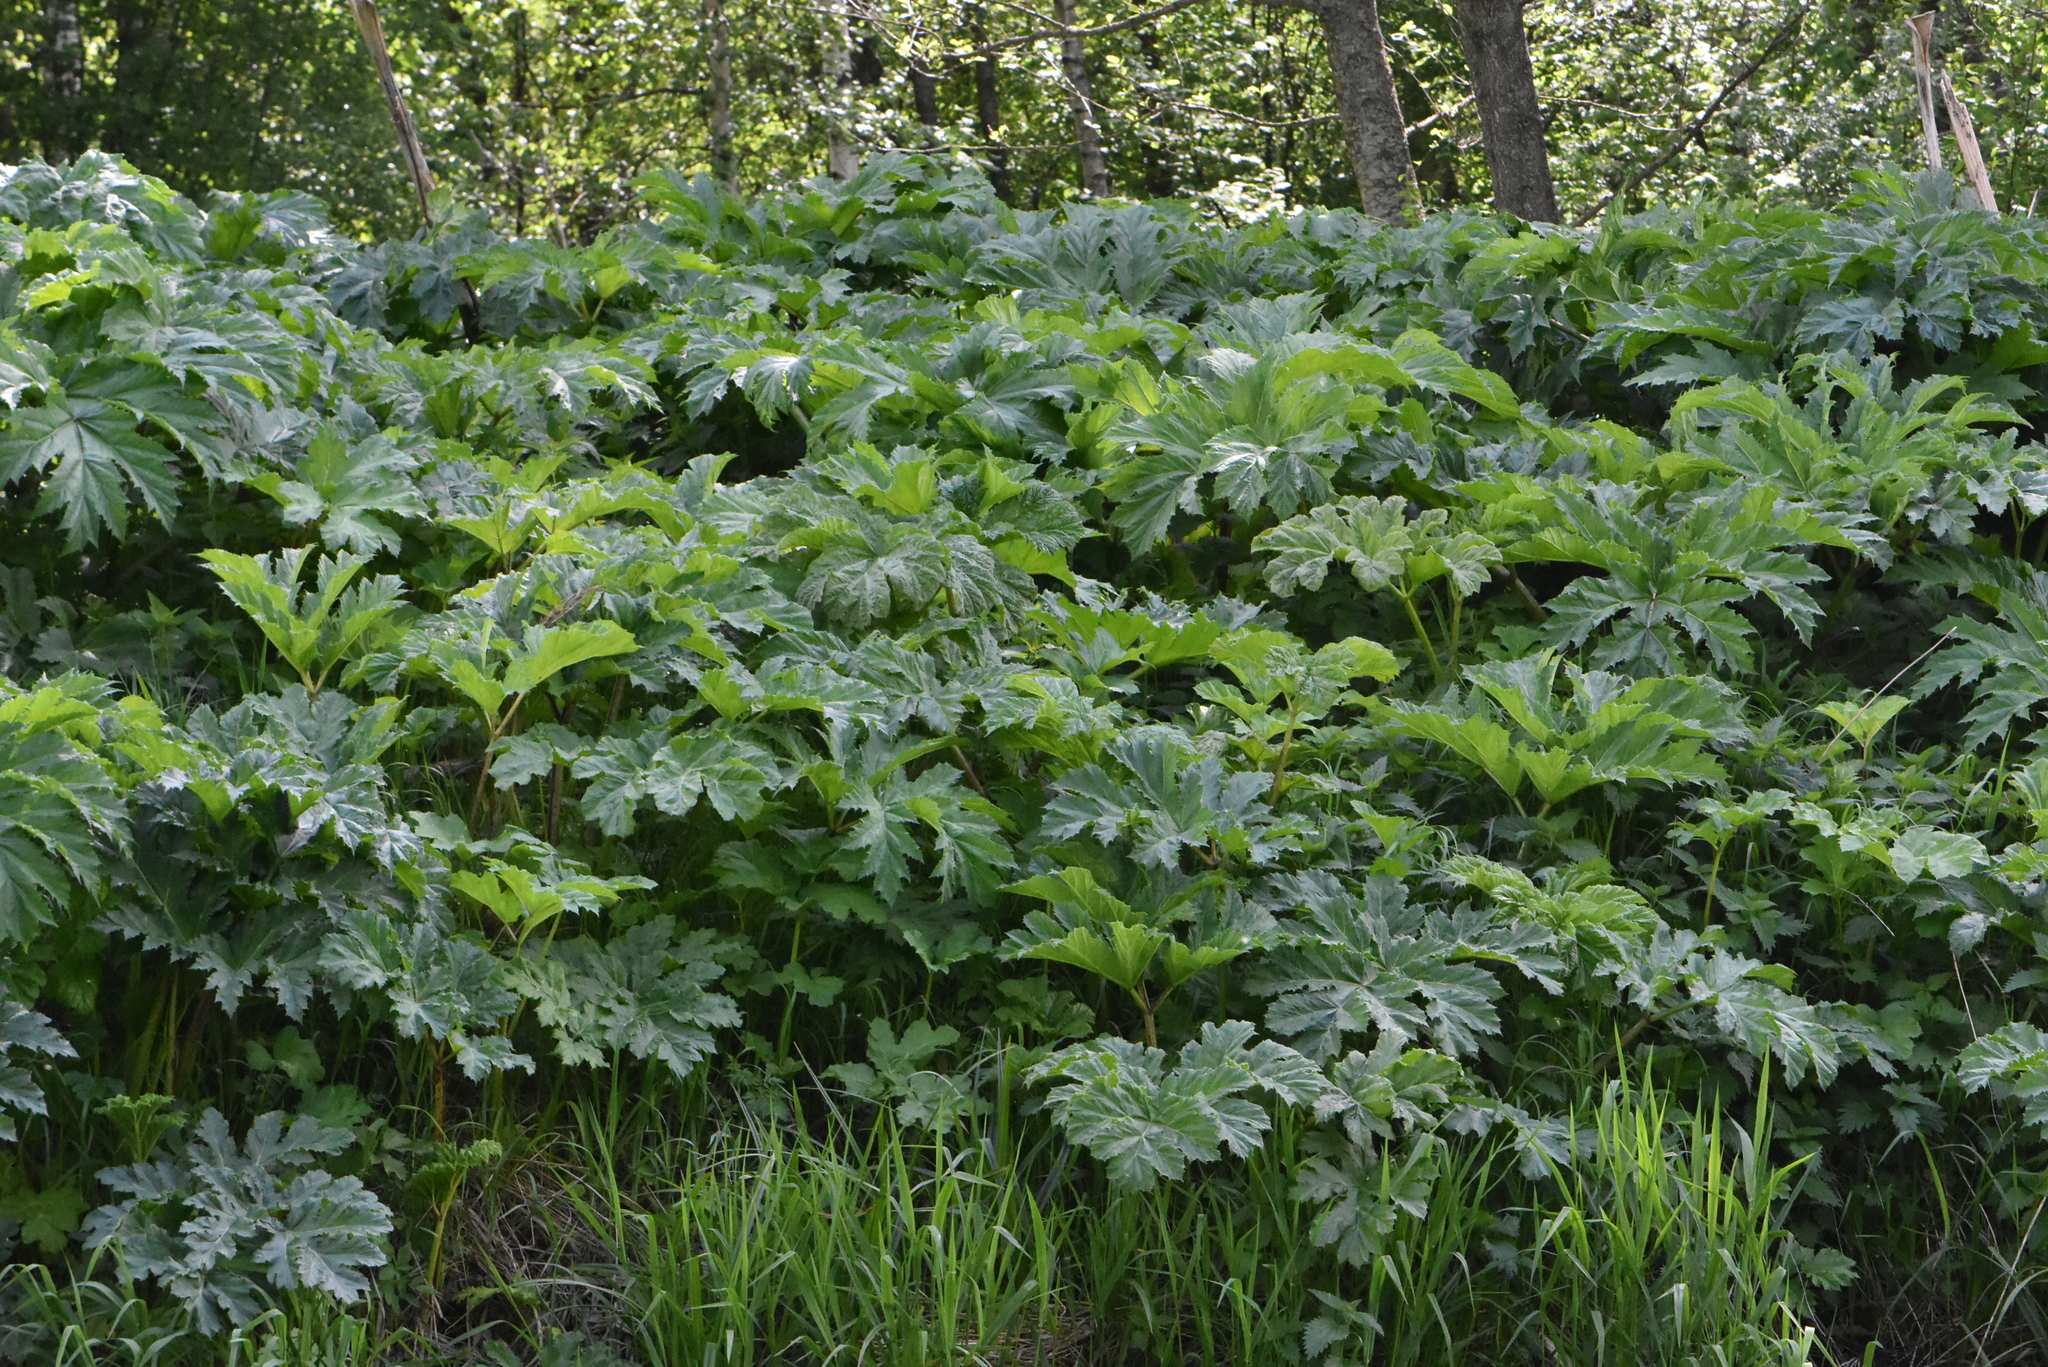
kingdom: Plantae
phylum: Tracheophyta
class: Magnoliopsida
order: Apiales
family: Apiaceae
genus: Heracleum
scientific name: Heracleum sosnowskyi
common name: Sosnowsky's hogweed
